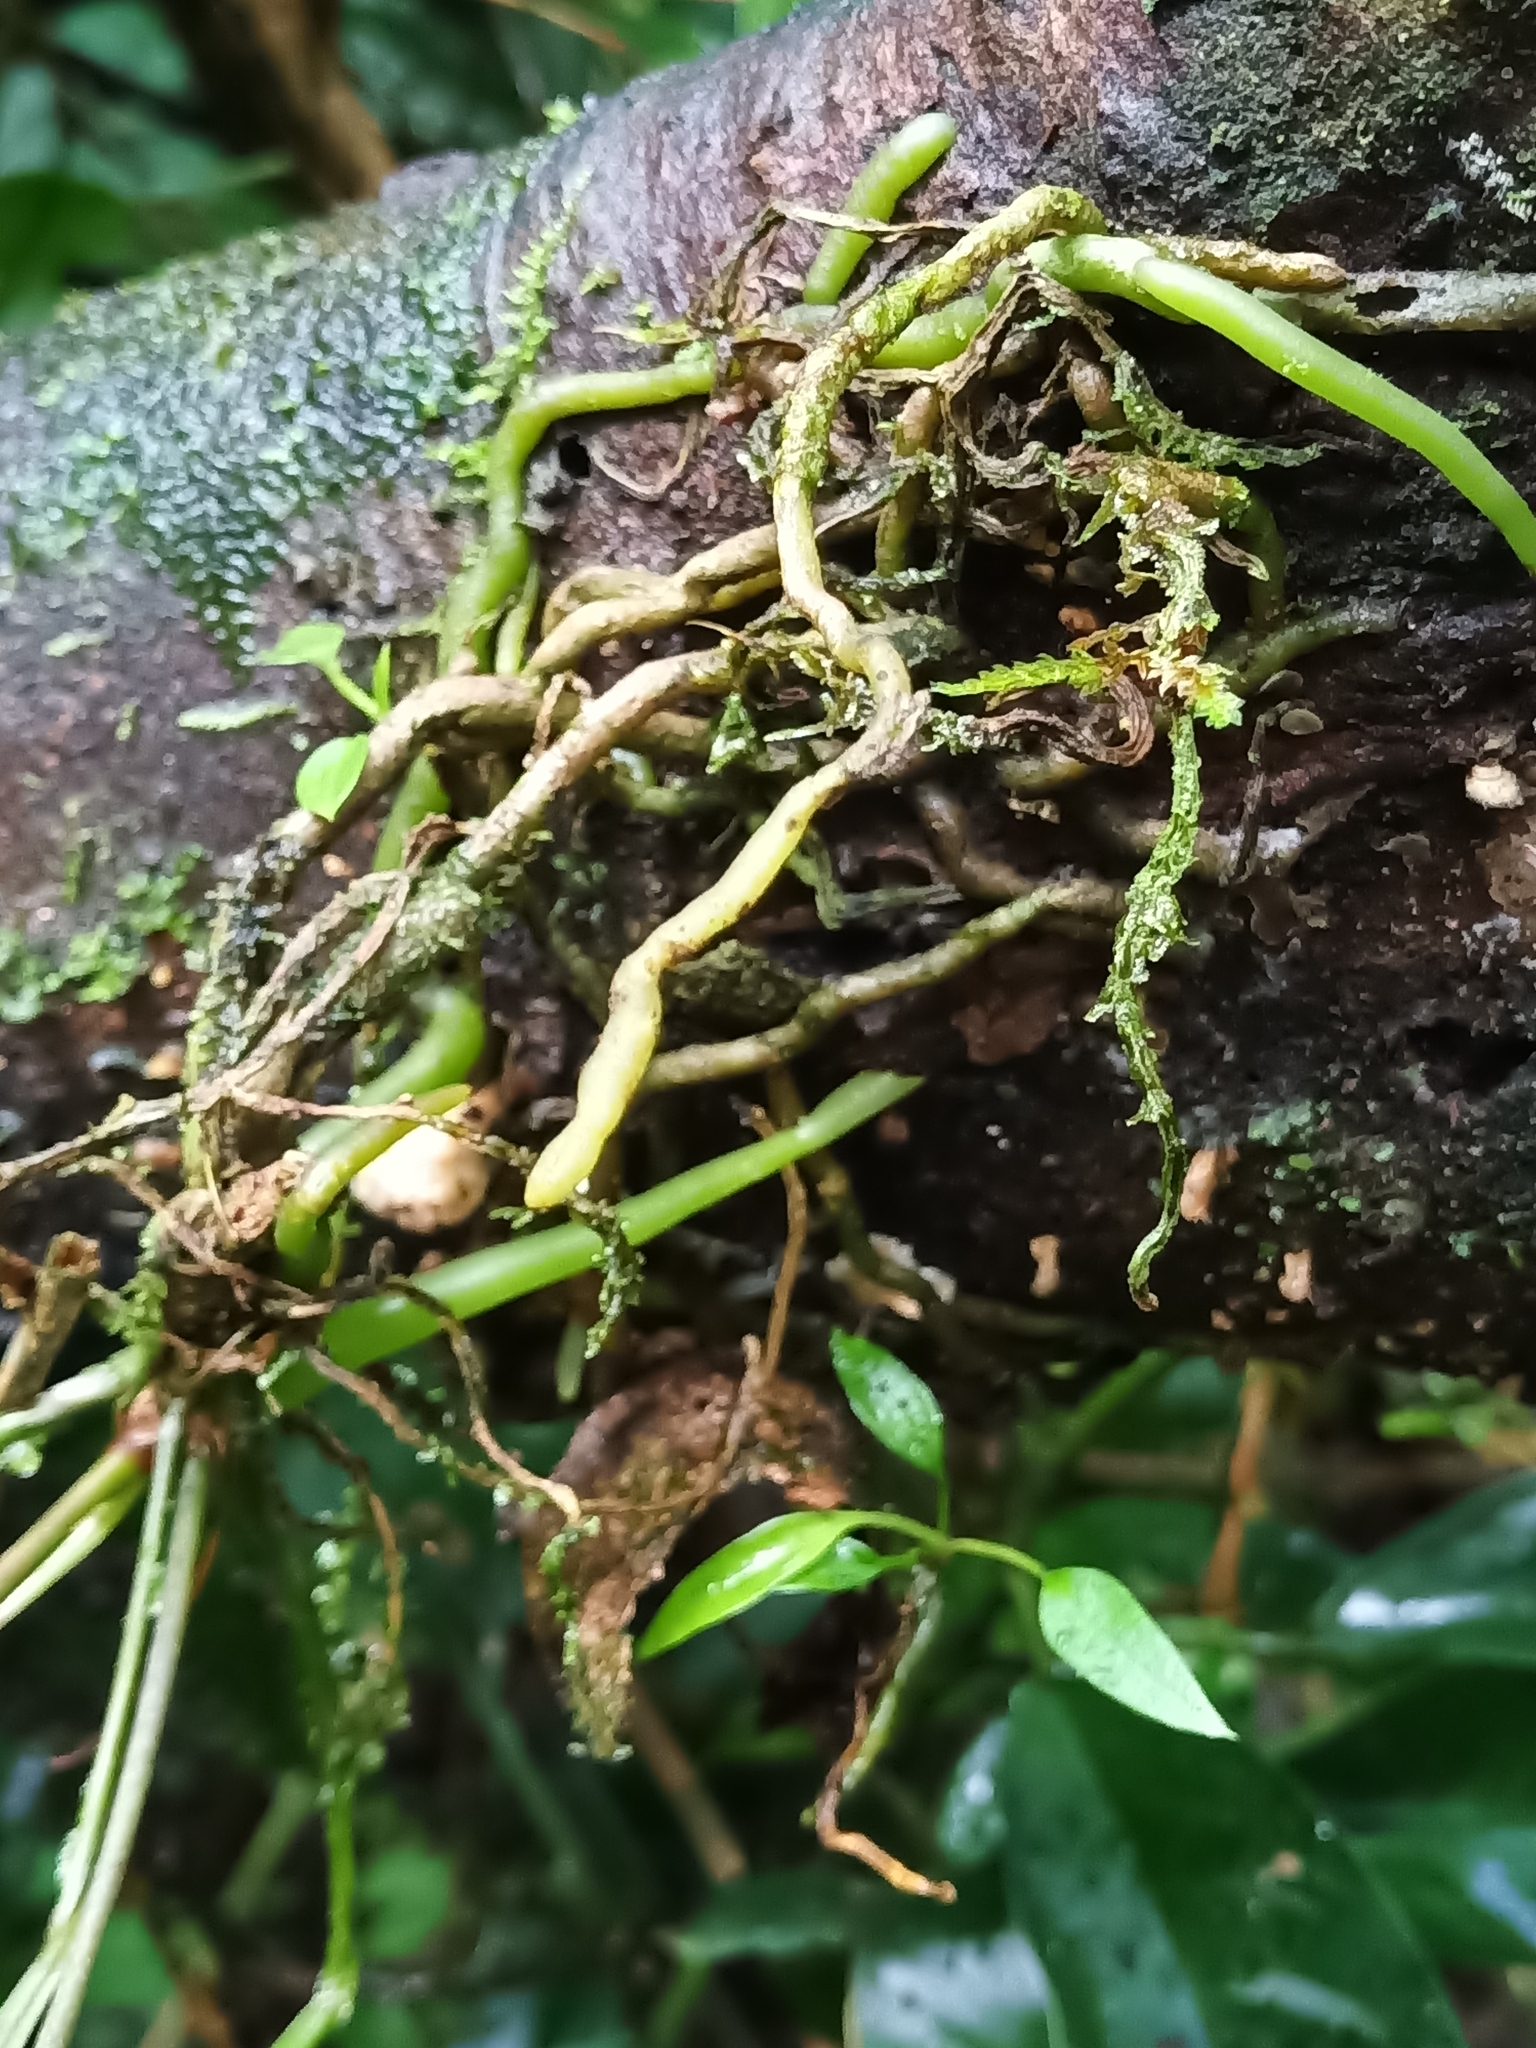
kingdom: Plantae
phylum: Tracheophyta
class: Liliopsida
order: Alismatales
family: Araceae
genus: Anthurium
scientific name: Anthurium gracile
